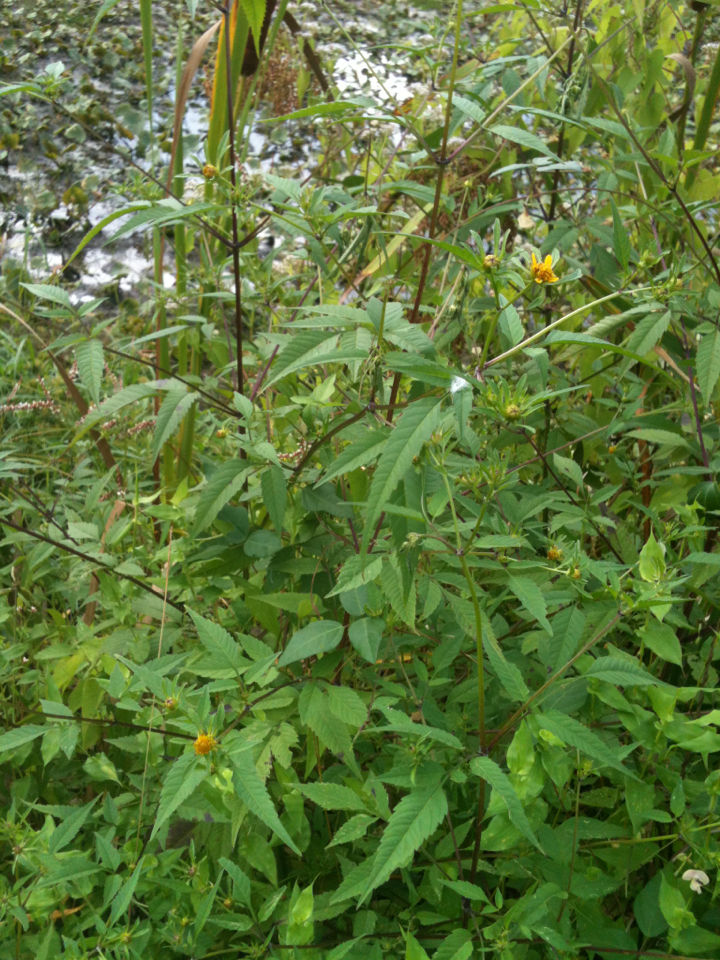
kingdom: Plantae
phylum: Tracheophyta
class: Magnoliopsida
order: Asterales
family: Asteraceae
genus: Bidens
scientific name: Bidens frondosa
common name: Beggarticks
